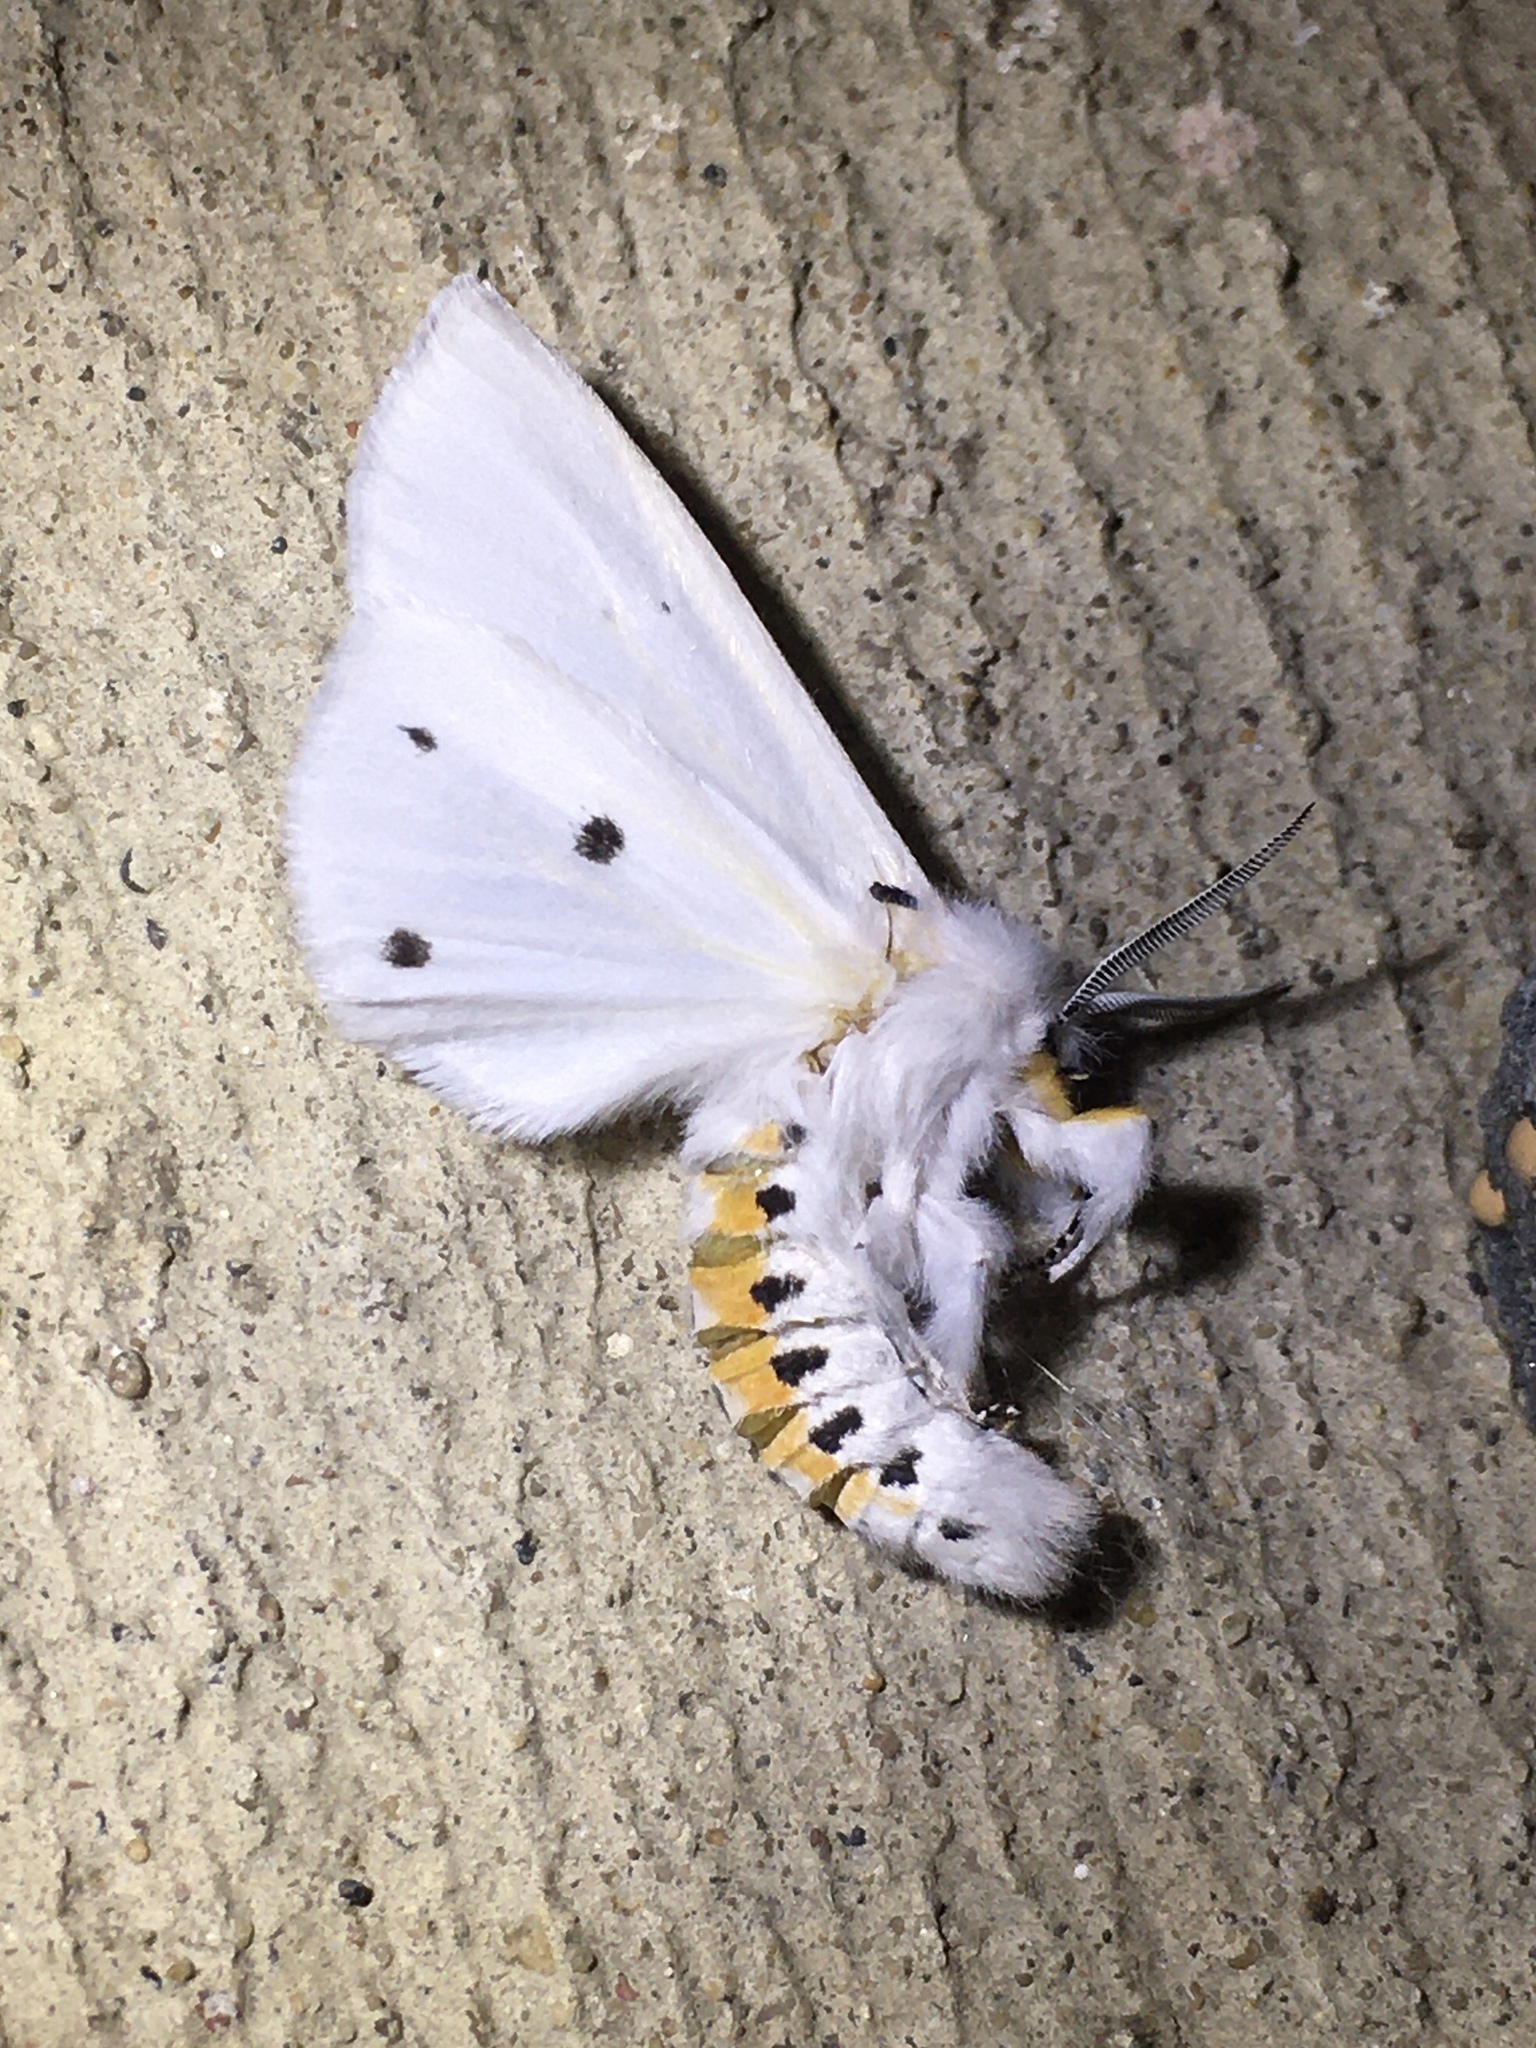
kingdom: Animalia
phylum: Arthropoda
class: Insecta
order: Lepidoptera
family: Erebidae
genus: Spilosoma
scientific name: Spilosoma virginica
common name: Virginia tiger moth
